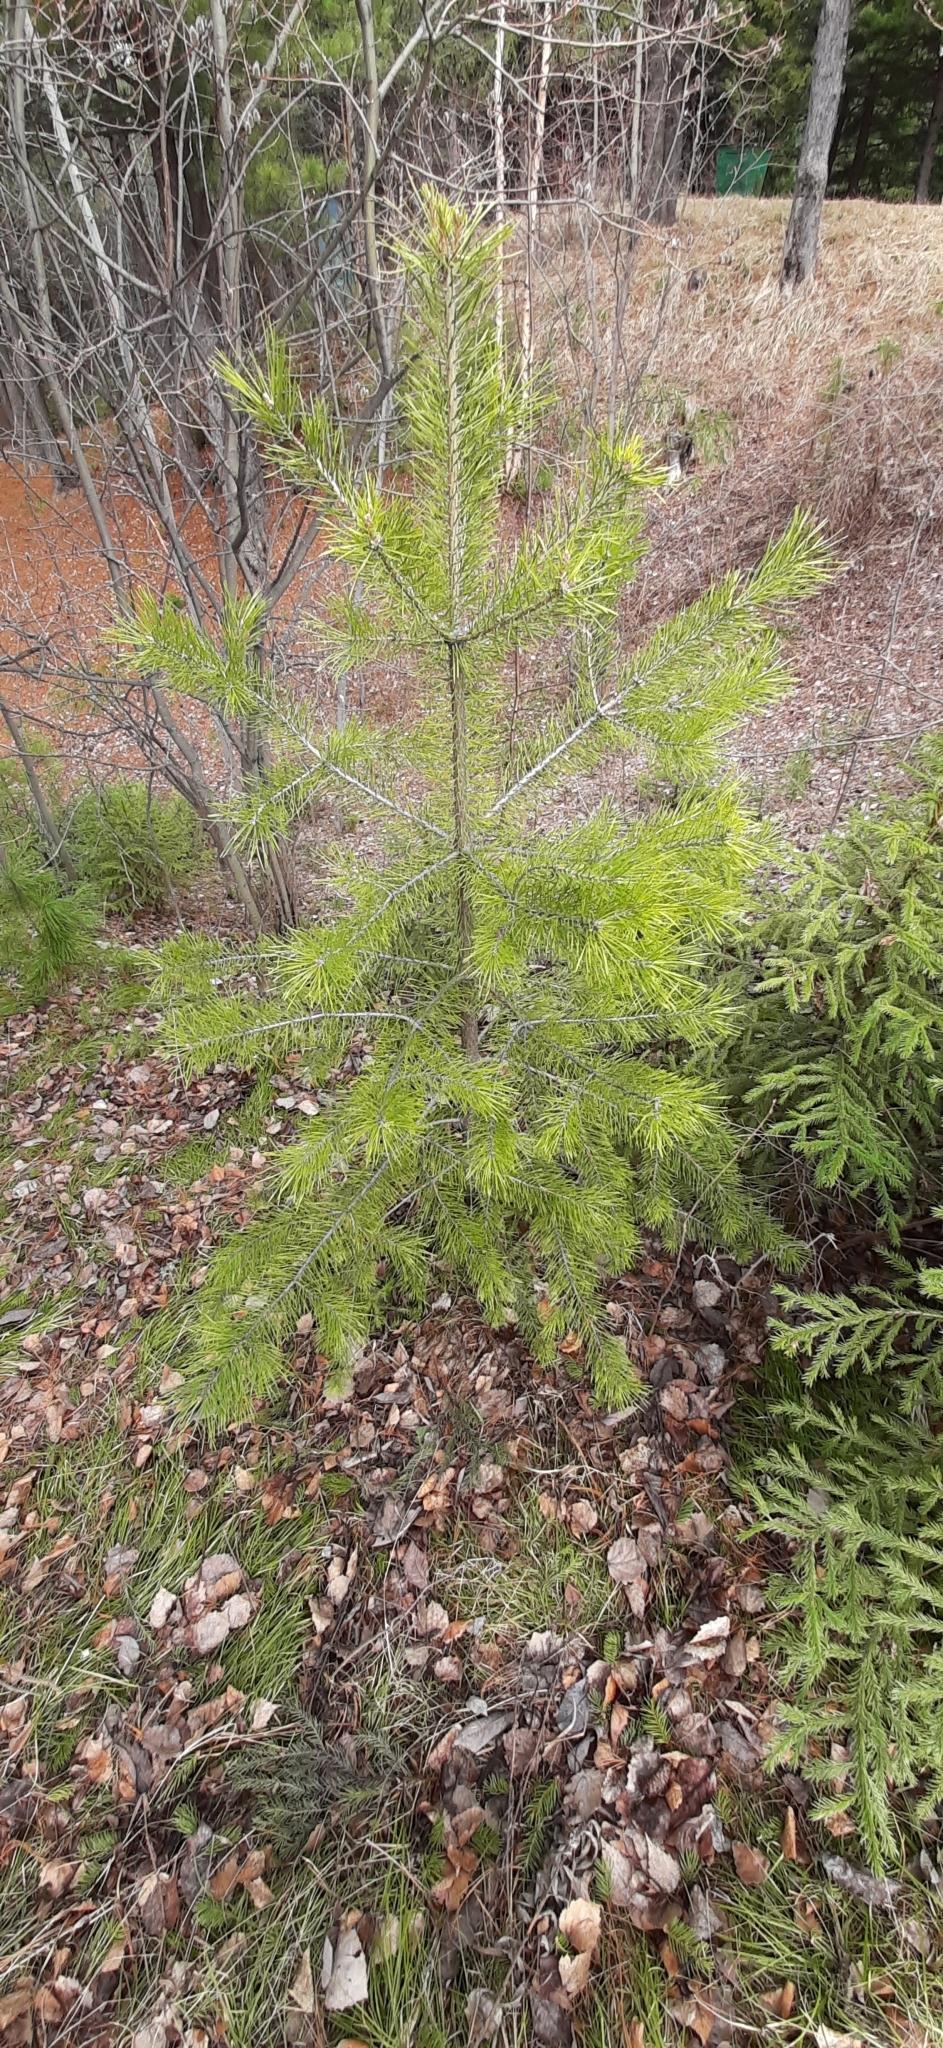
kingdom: Plantae
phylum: Tracheophyta
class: Pinopsida
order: Pinales
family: Pinaceae
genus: Pinus
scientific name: Pinus sylvestris
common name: Scots pine
